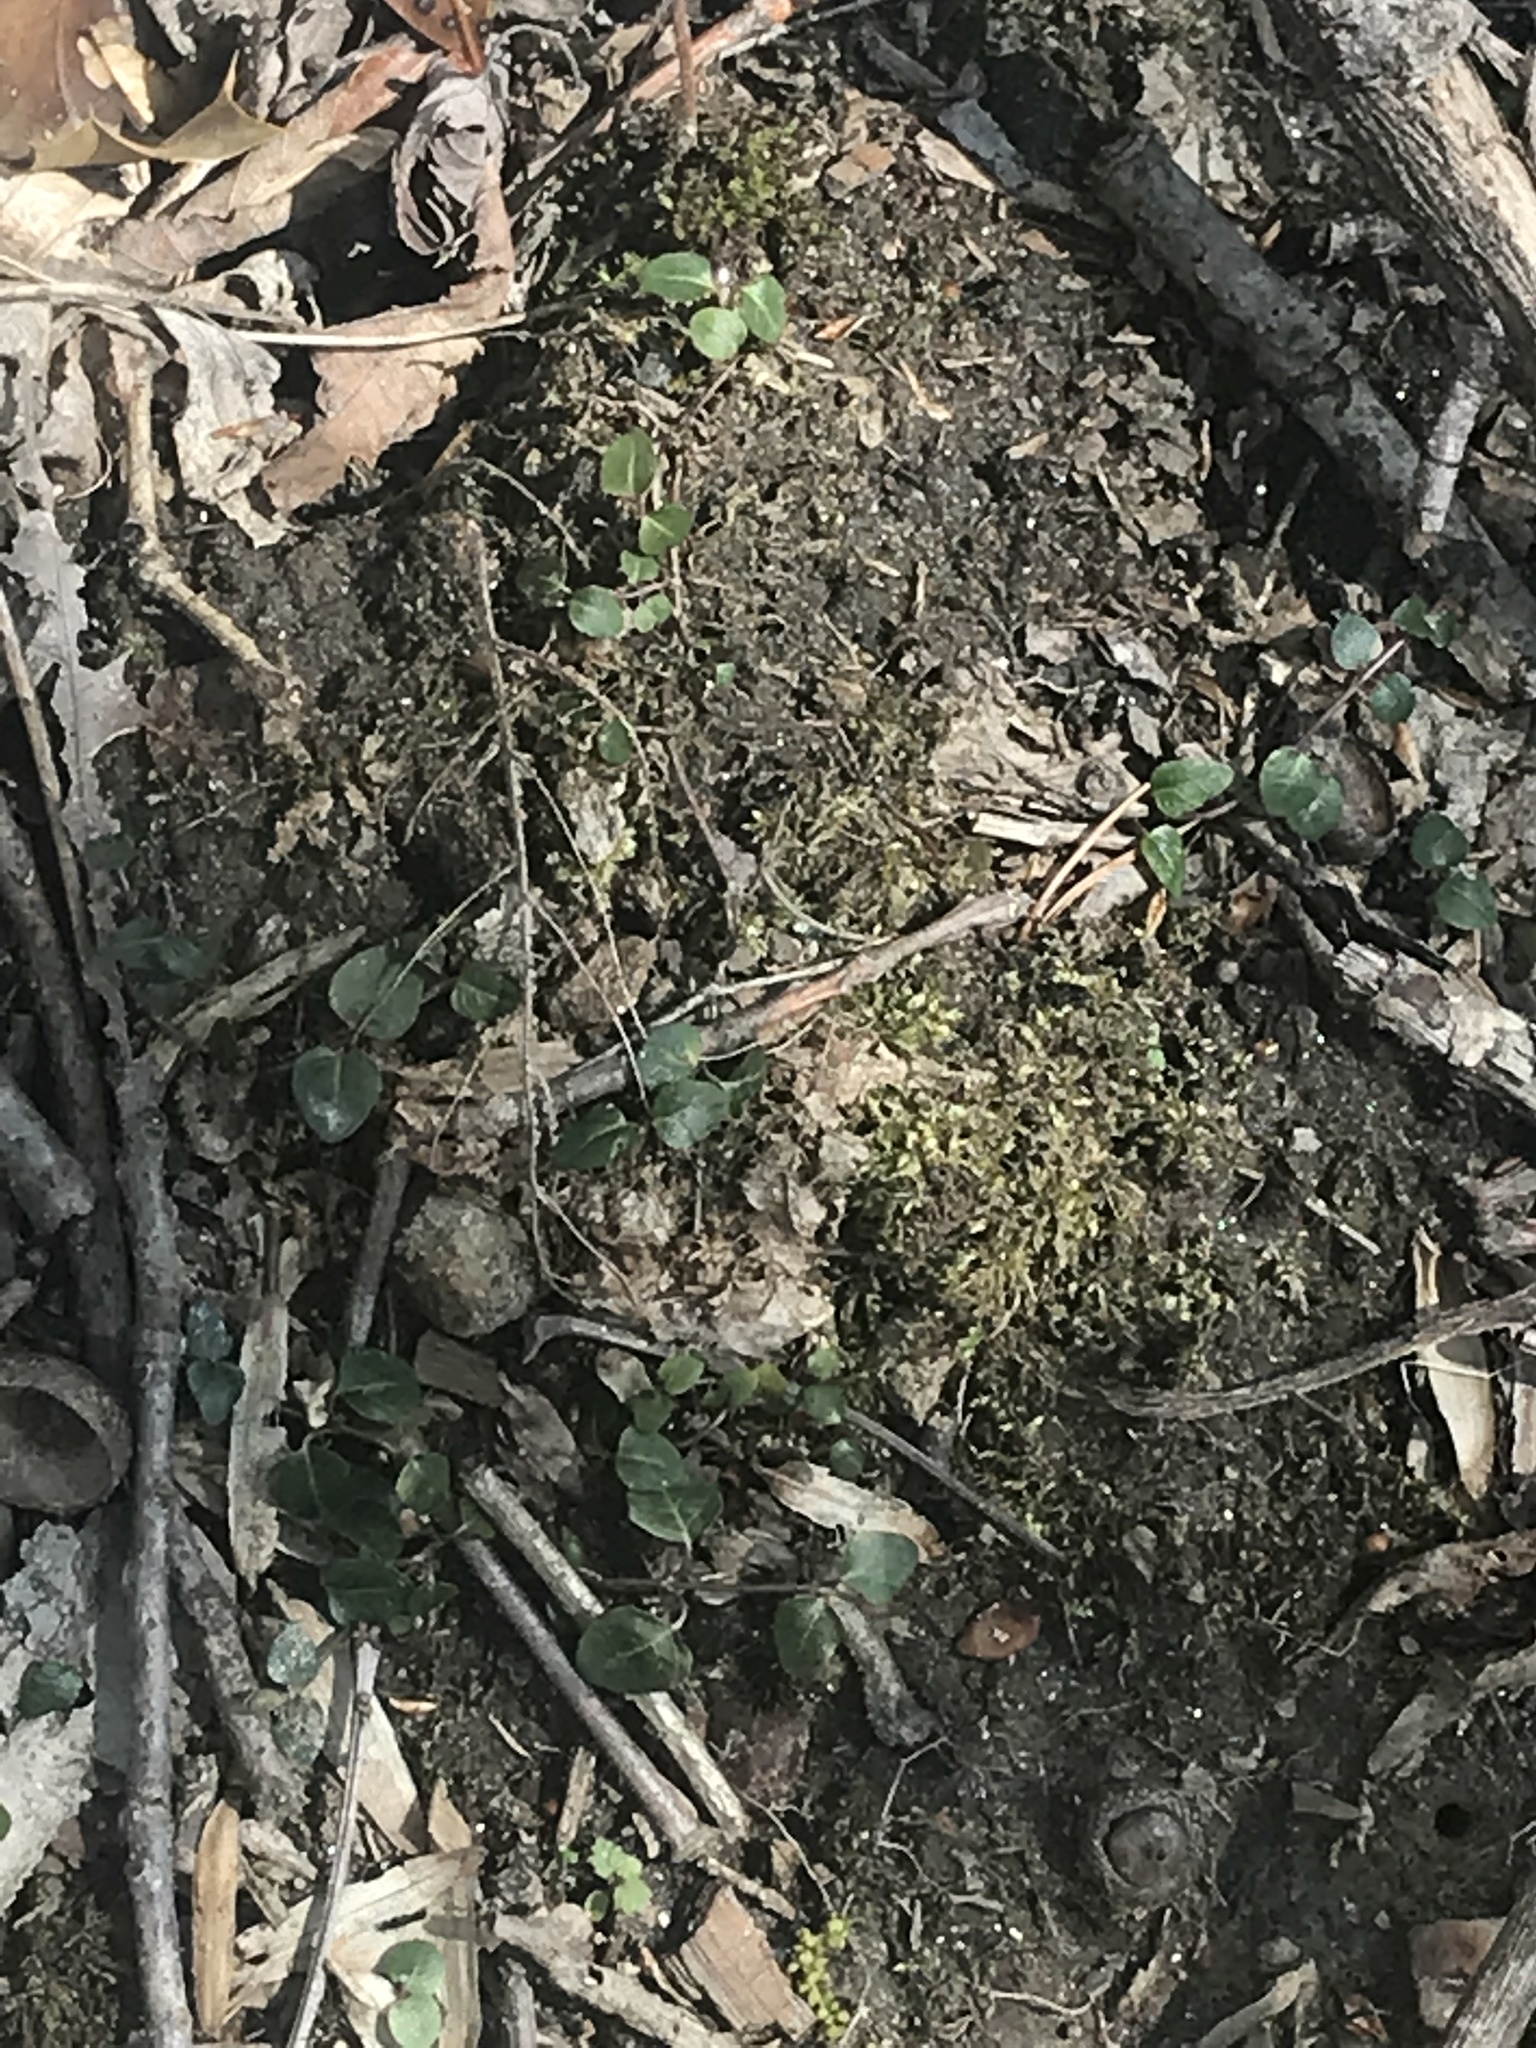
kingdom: Plantae
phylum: Tracheophyta
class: Magnoliopsida
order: Gentianales
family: Rubiaceae
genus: Mitchella
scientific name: Mitchella repens
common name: Partridge-berry
